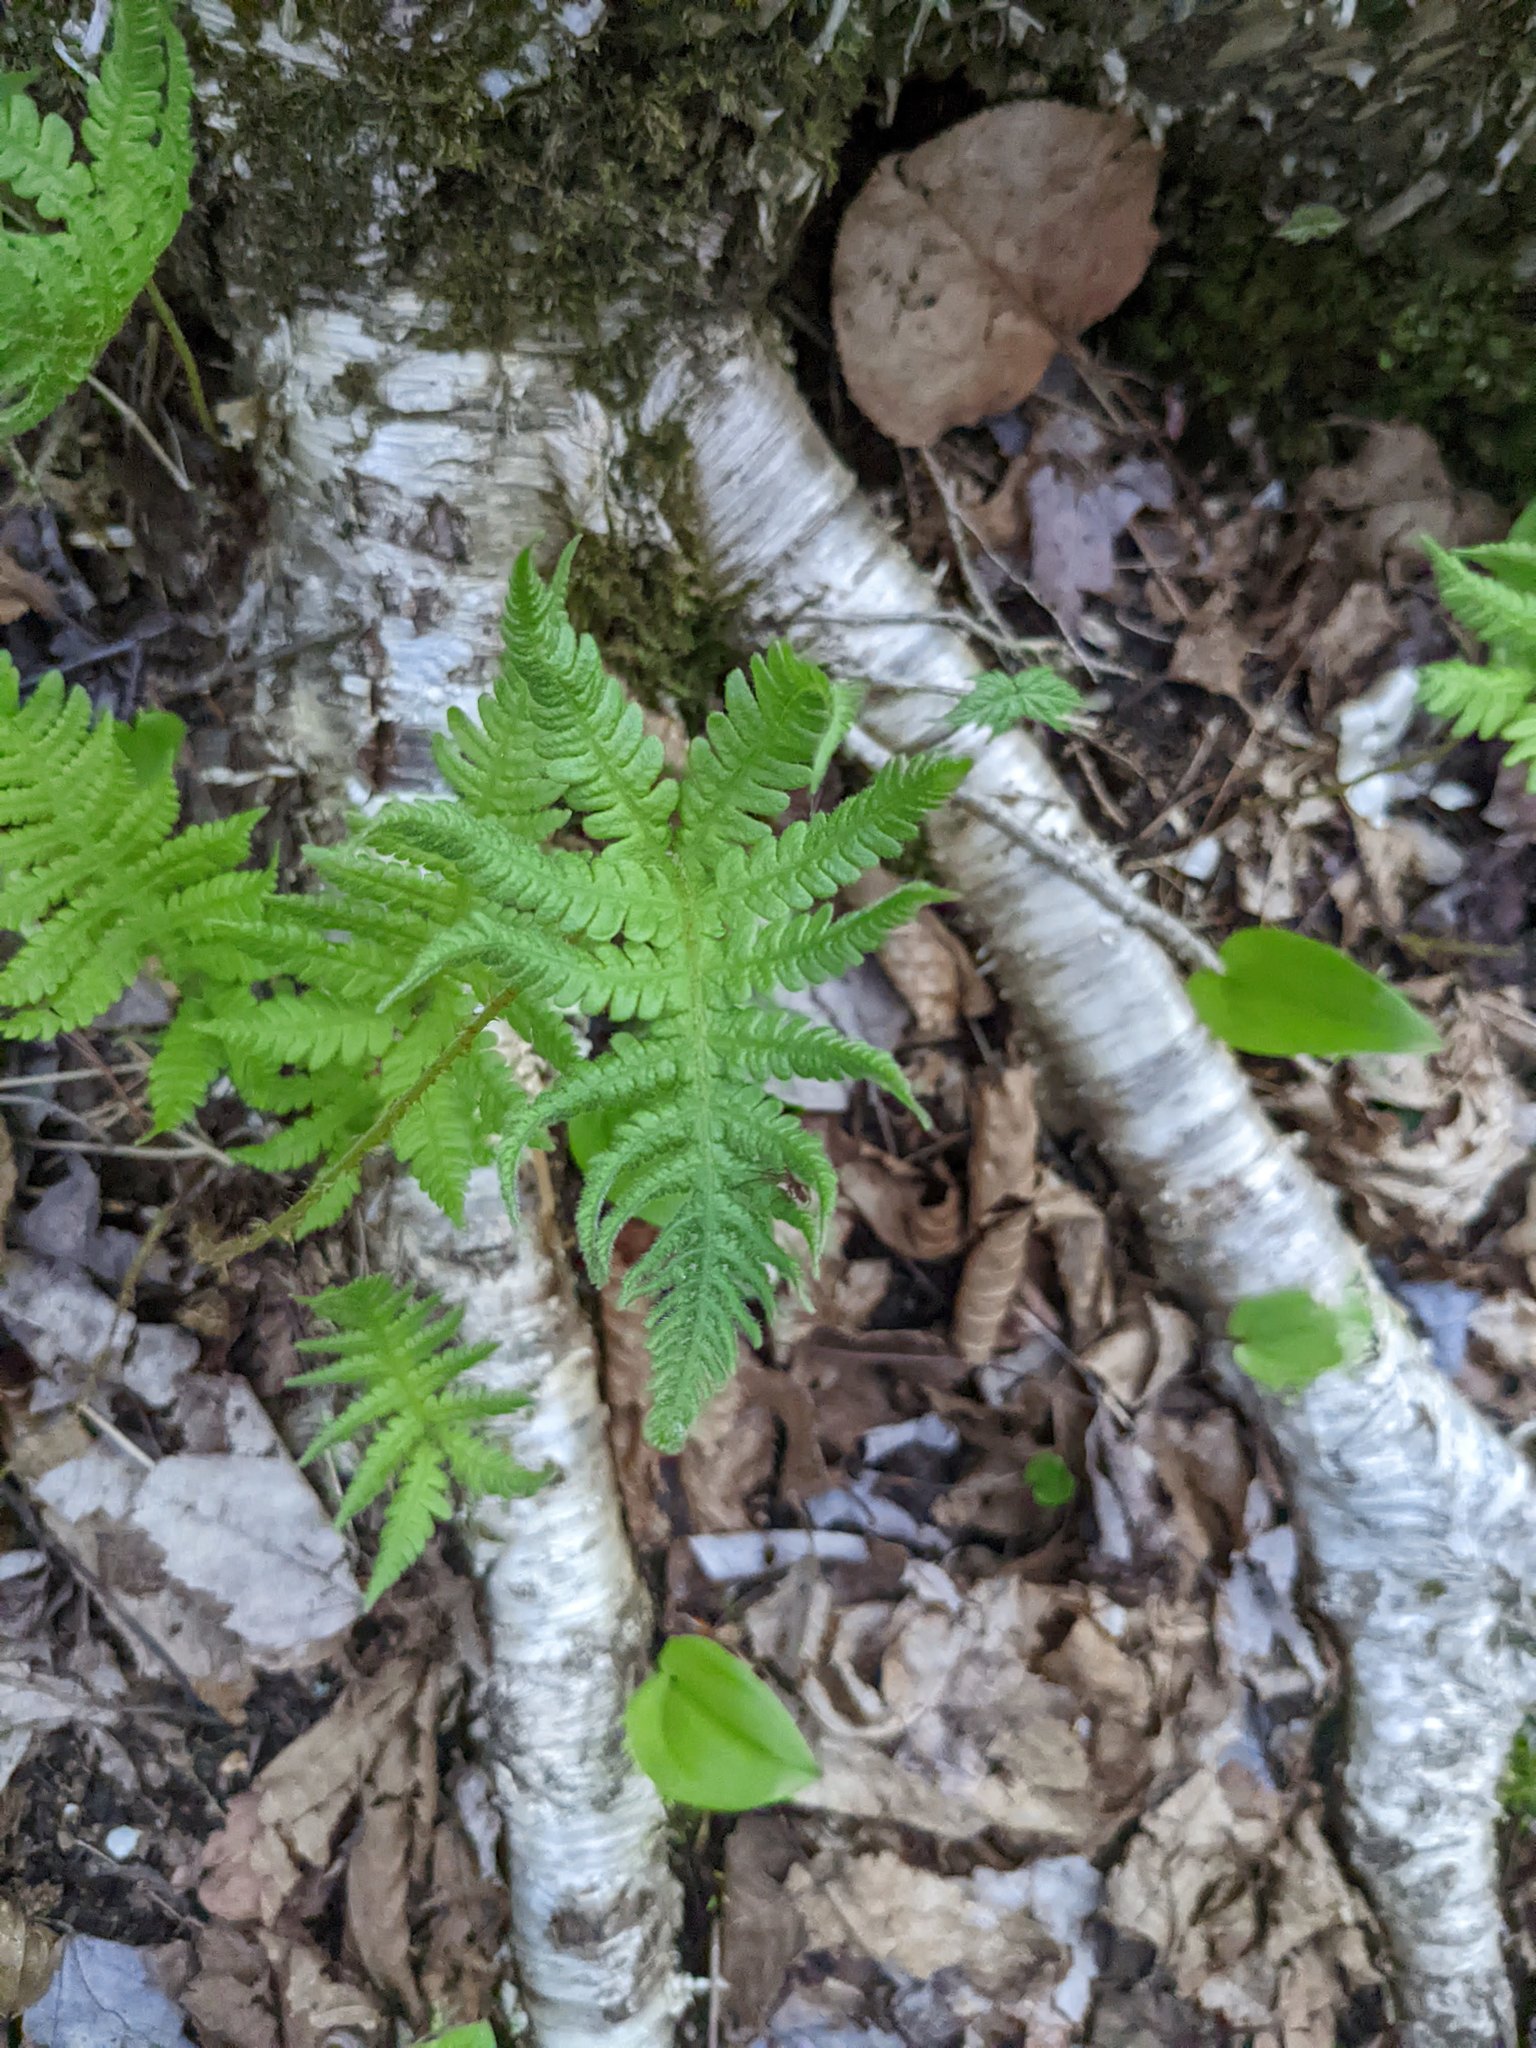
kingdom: Plantae
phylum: Tracheophyta
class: Polypodiopsida
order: Polypodiales
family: Thelypteridaceae
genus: Phegopteris
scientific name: Phegopteris connectilis
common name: Beech fern
